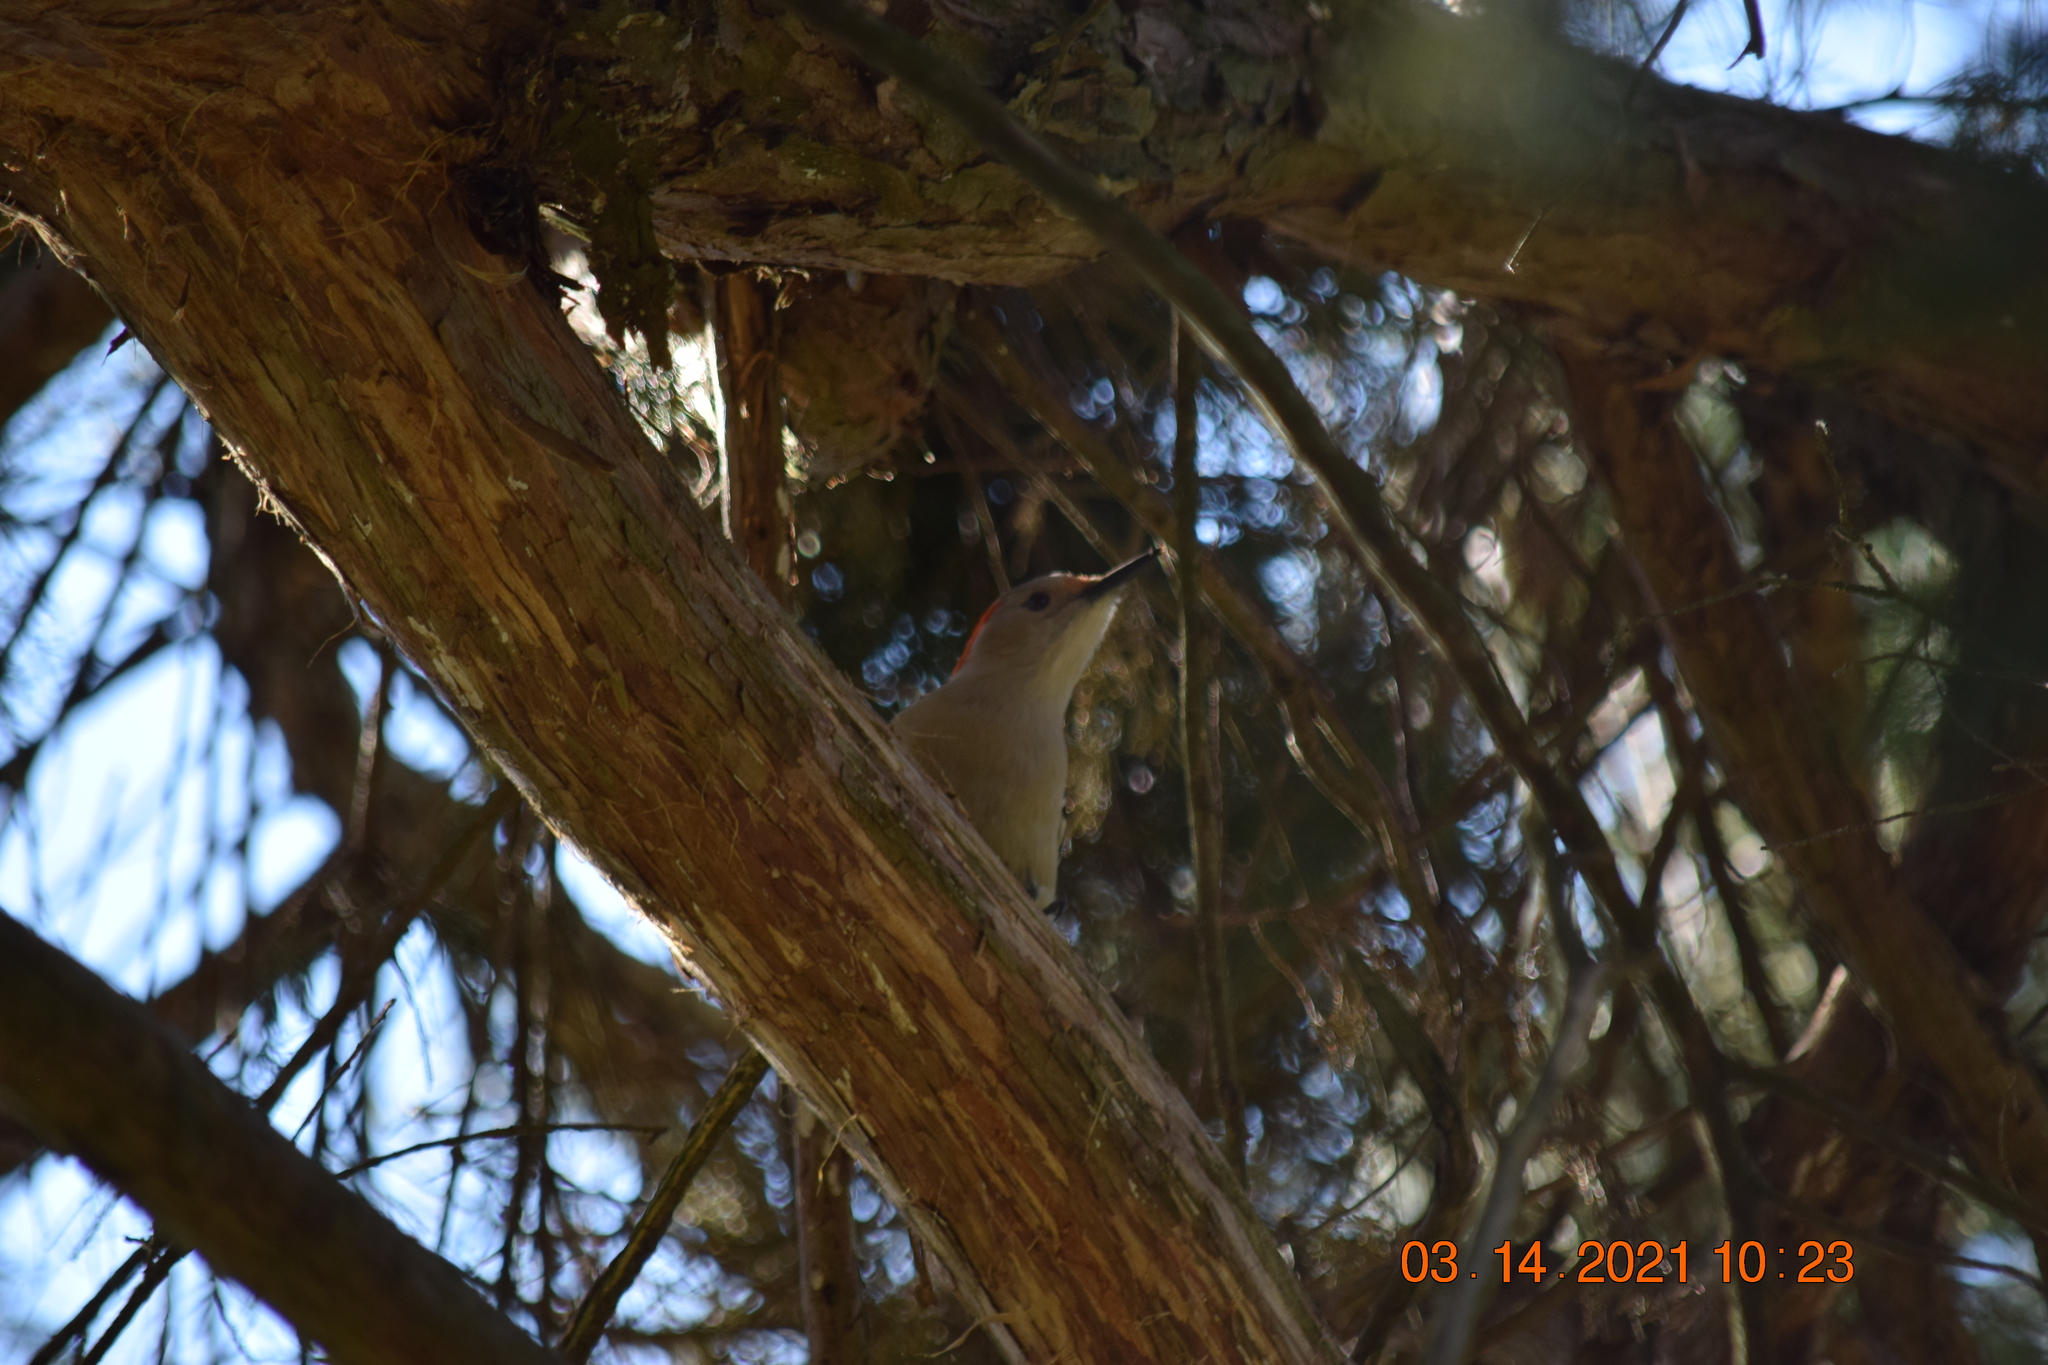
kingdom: Animalia
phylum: Chordata
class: Aves
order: Piciformes
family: Picidae
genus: Melanerpes
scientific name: Melanerpes carolinus
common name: Red-bellied woodpecker
